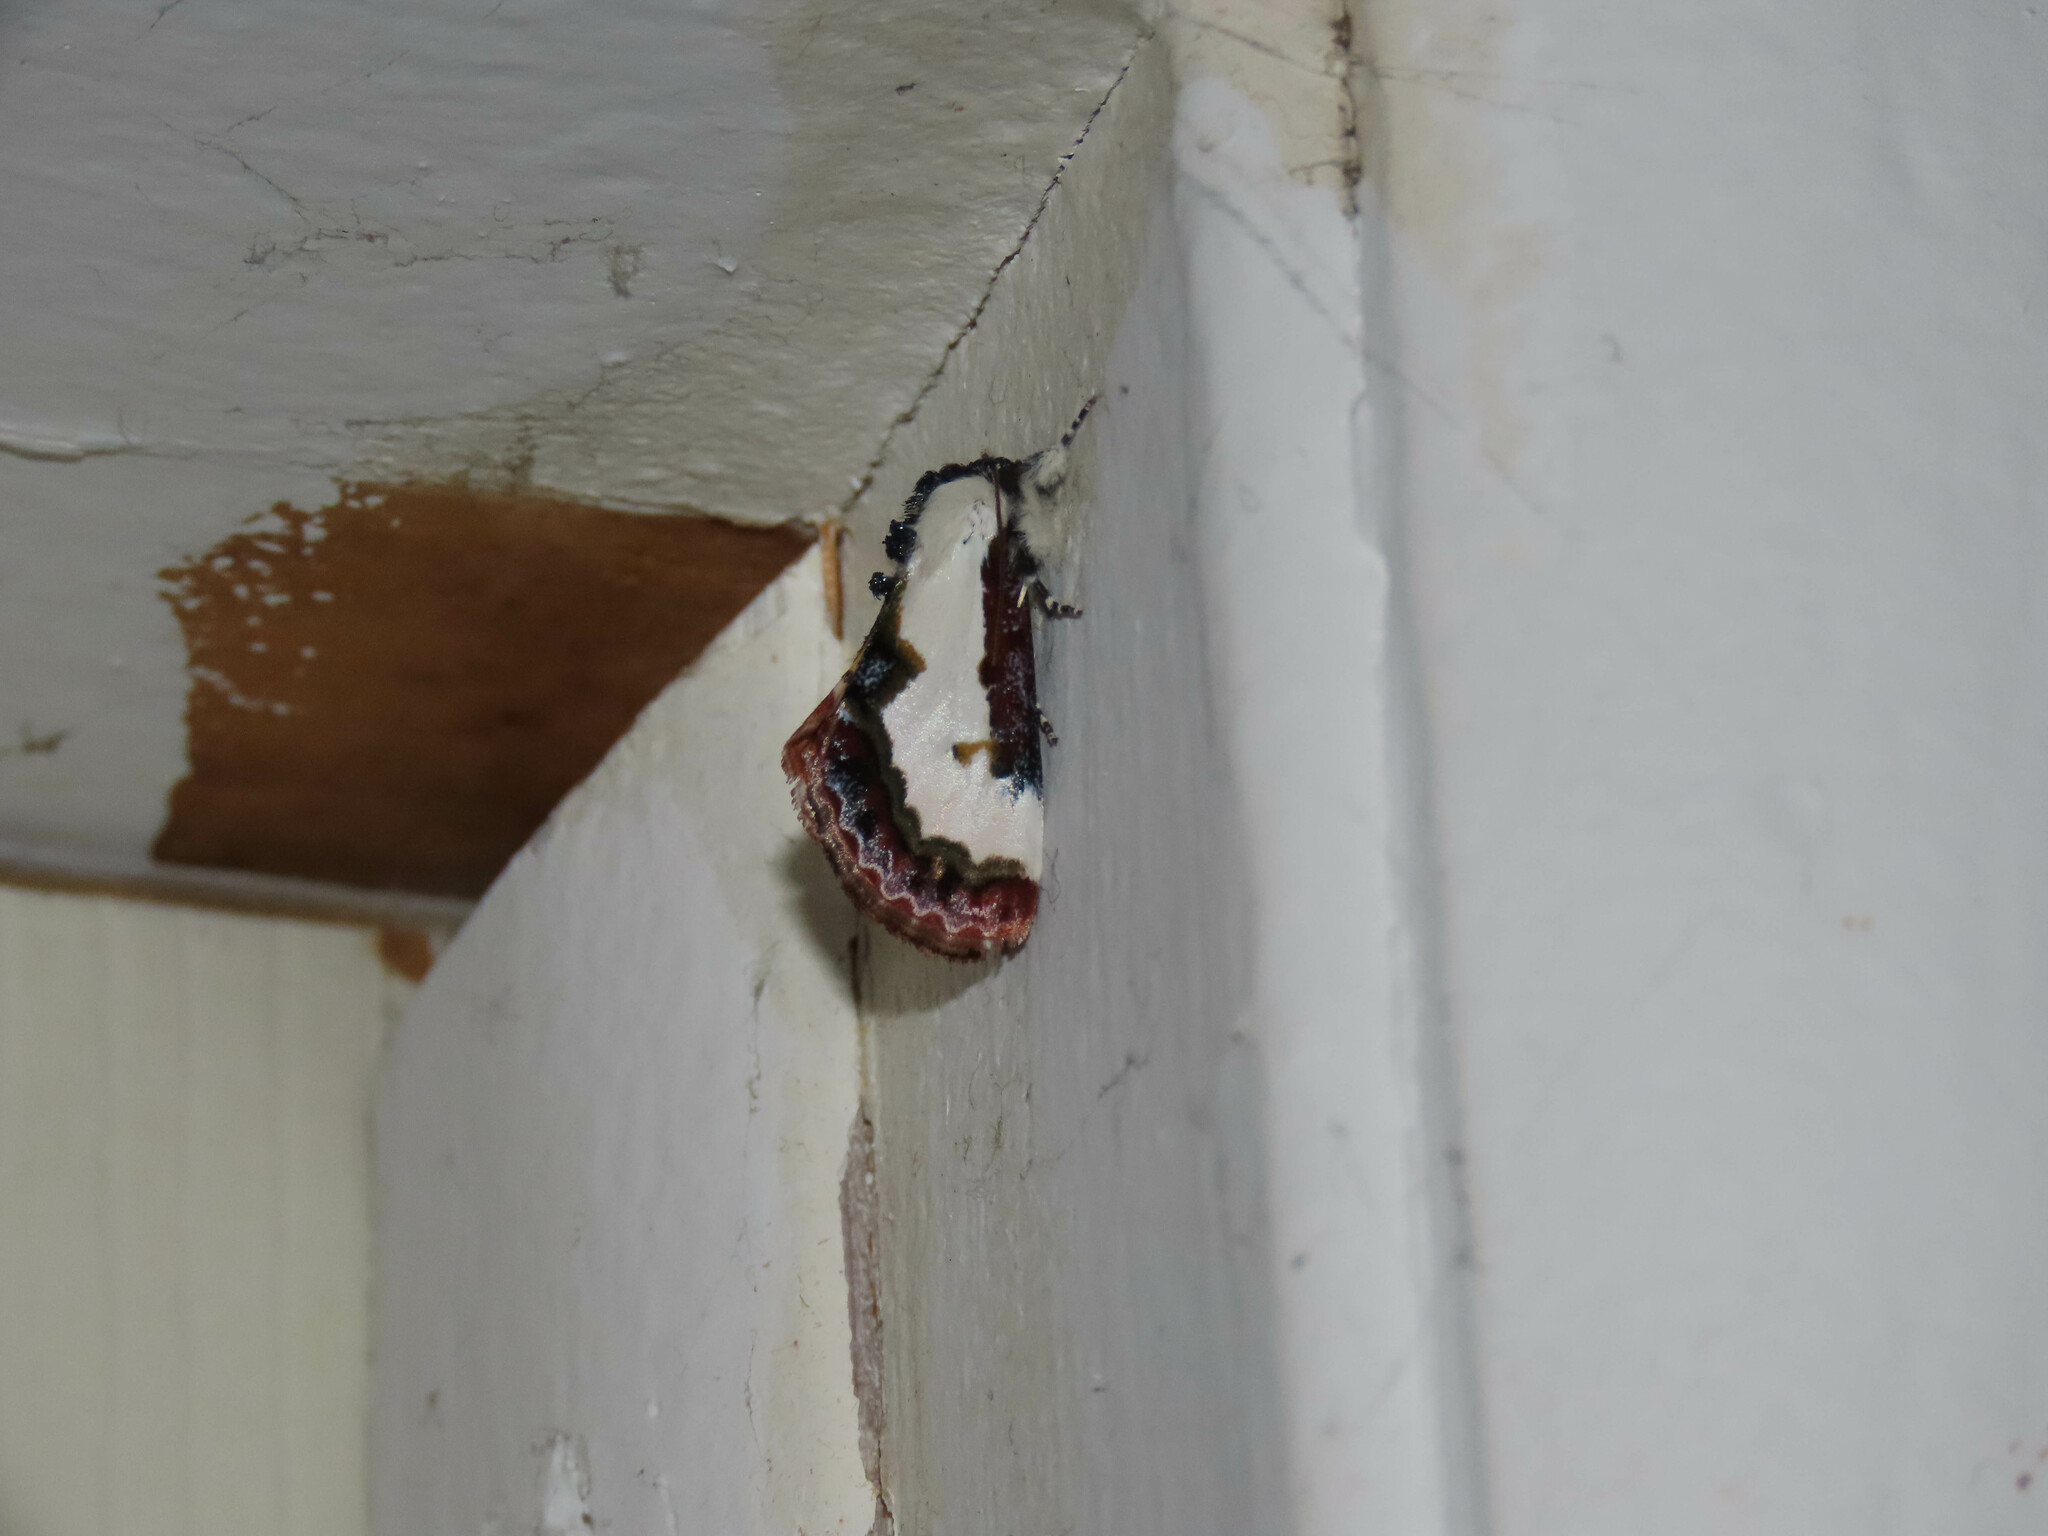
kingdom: Animalia
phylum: Arthropoda
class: Insecta
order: Lepidoptera
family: Noctuidae
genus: Eudryas
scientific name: Eudryas unio
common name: Pearly wood-nymph
